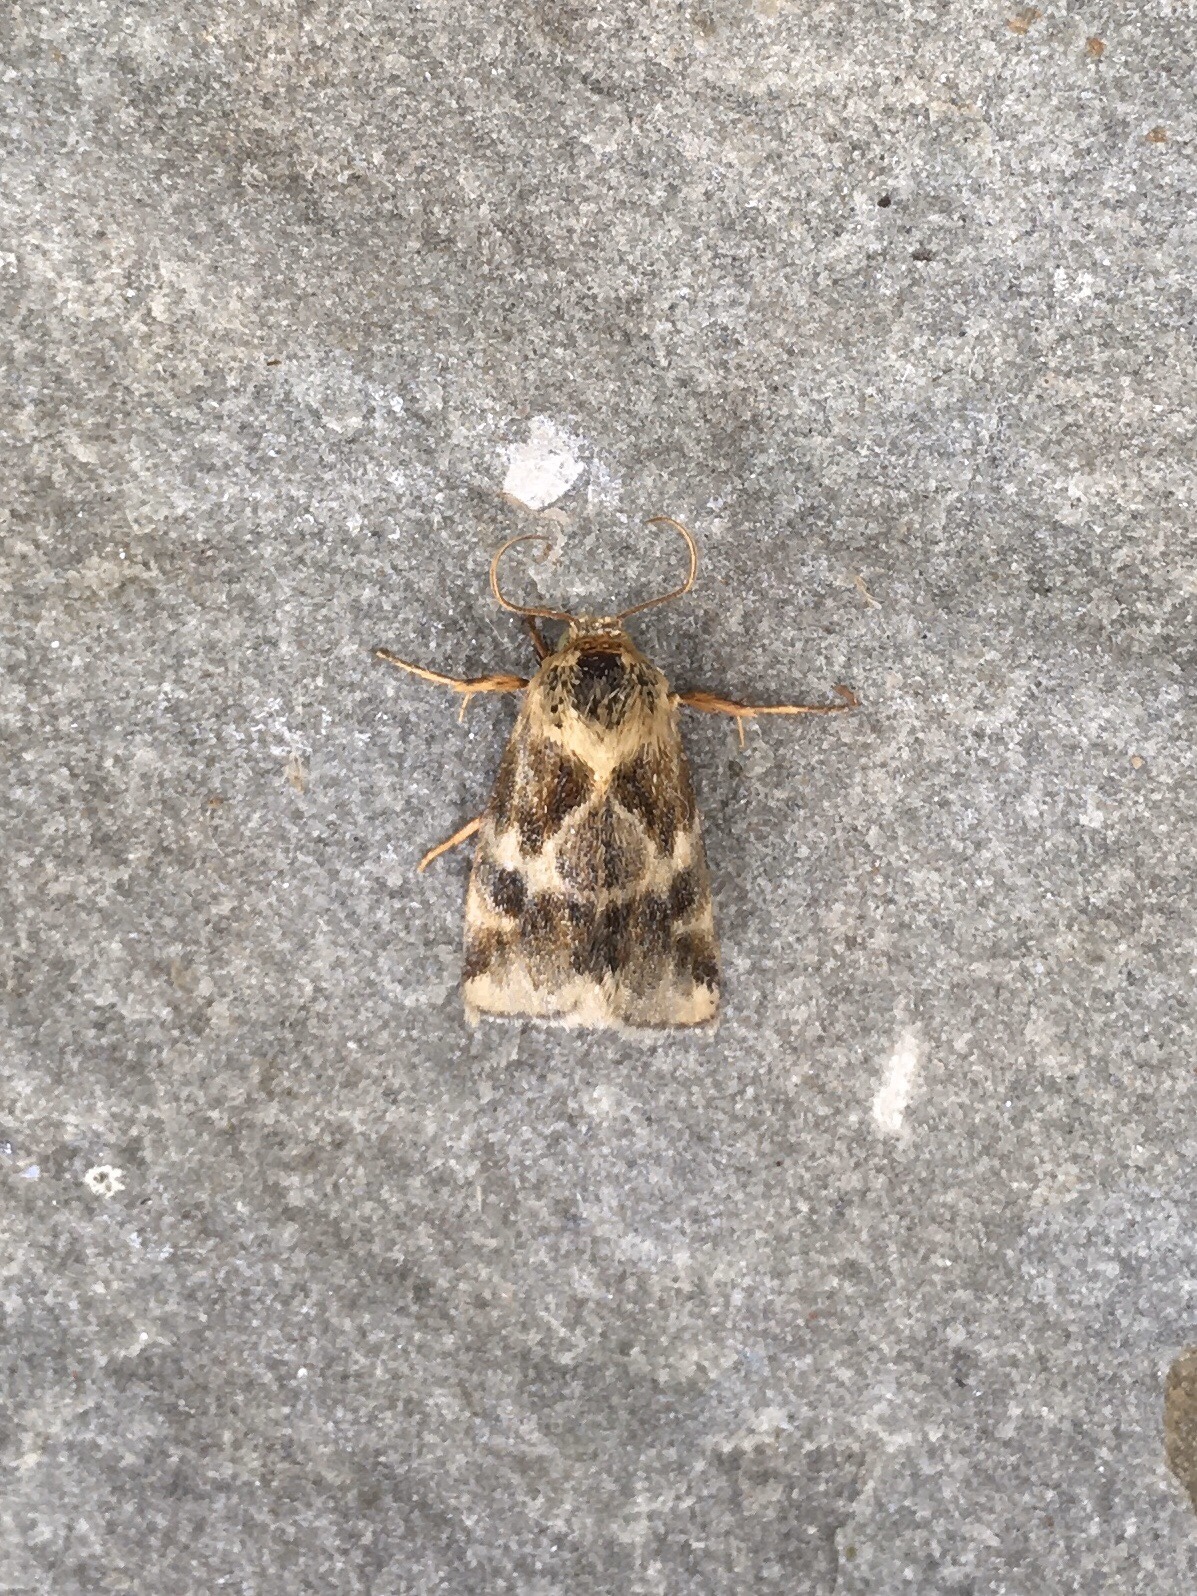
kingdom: Animalia
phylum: Arthropoda
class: Insecta
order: Lepidoptera
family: Noctuidae
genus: Schinia
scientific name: Schinia lynx
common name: Lynx flower moth
